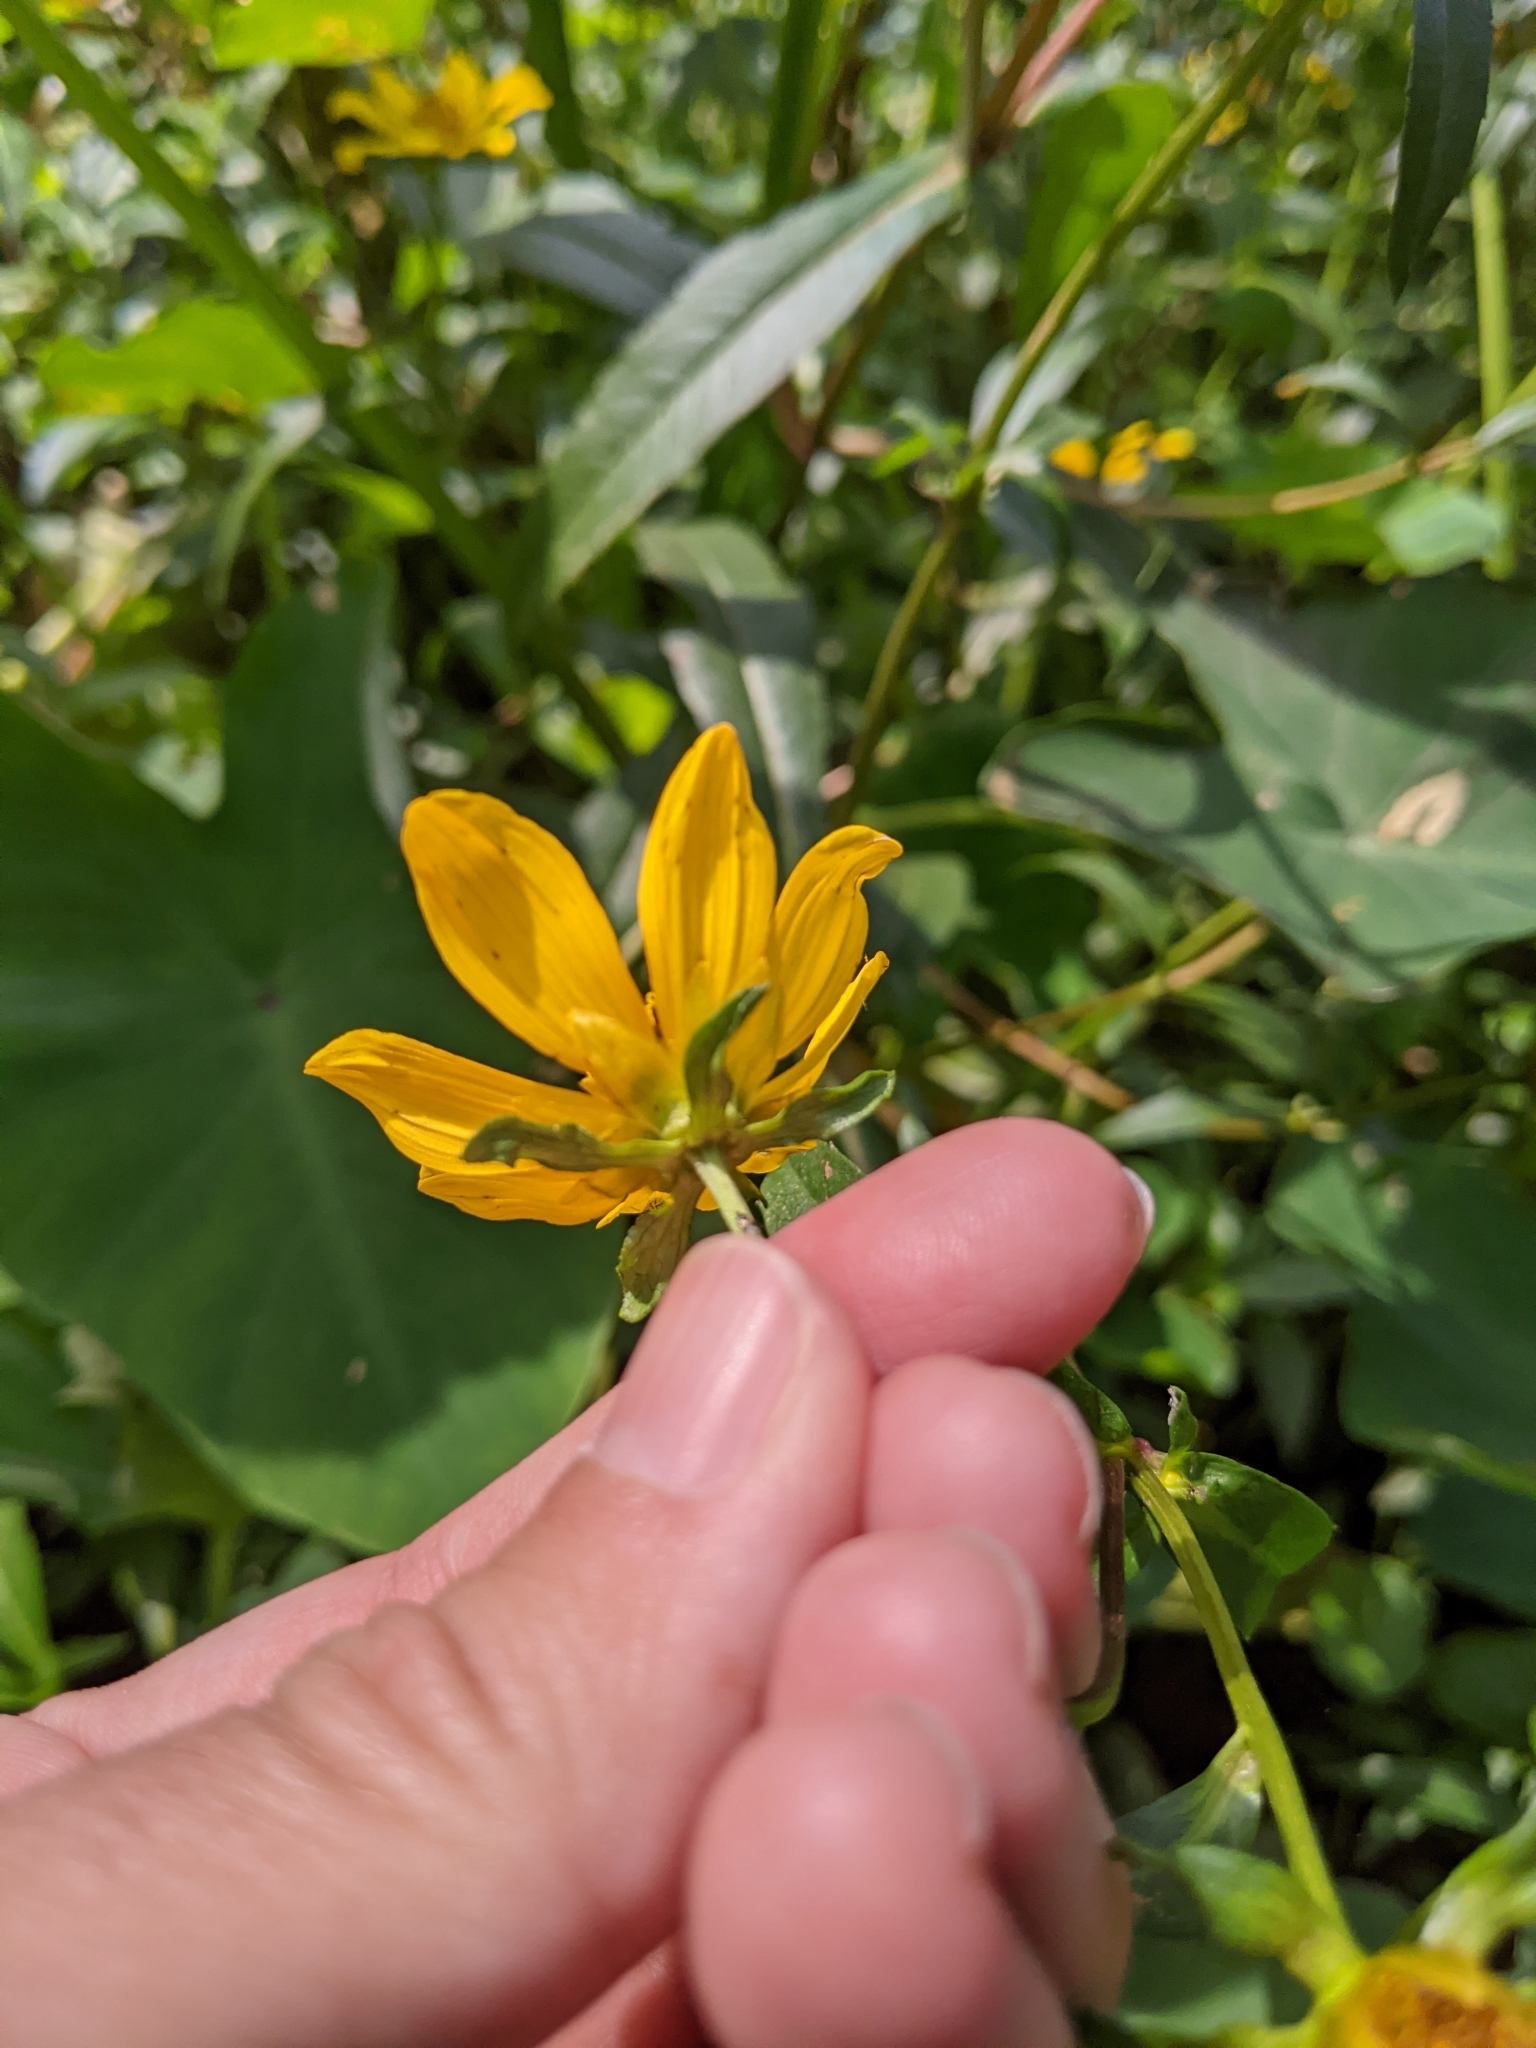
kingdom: Plantae
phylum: Tracheophyta
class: Magnoliopsida
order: Asterales
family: Asteraceae
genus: Bidens
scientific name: Bidens laevis
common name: Larger bur-marigold
